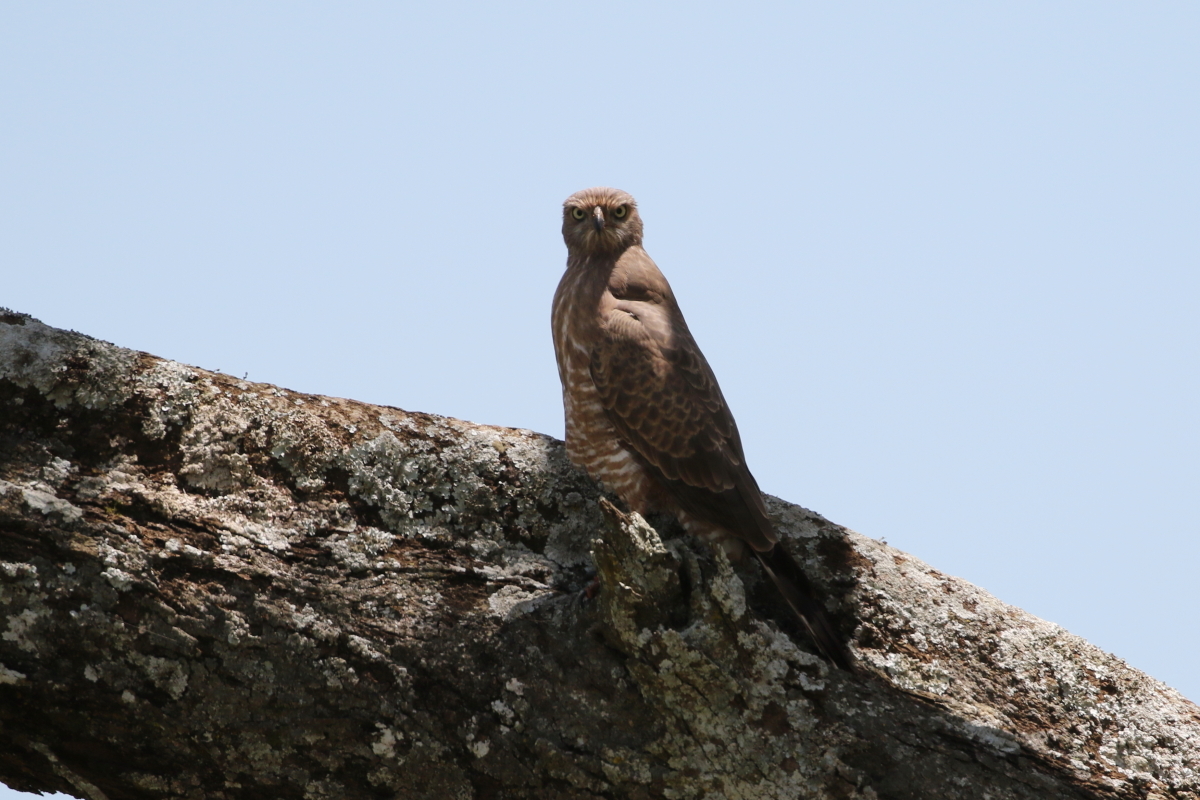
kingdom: Animalia
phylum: Chordata
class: Aves
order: Accipitriformes
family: Accipitridae
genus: Melierax
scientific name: Melierax metabates
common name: Dark chanting-goshawk
